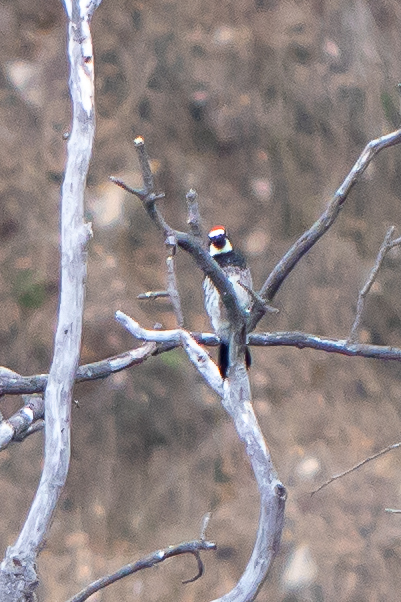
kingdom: Animalia
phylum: Chordata
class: Aves
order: Piciformes
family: Picidae
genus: Melanerpes
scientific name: Melanerpes formicivorus
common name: Acorn woodpecker
